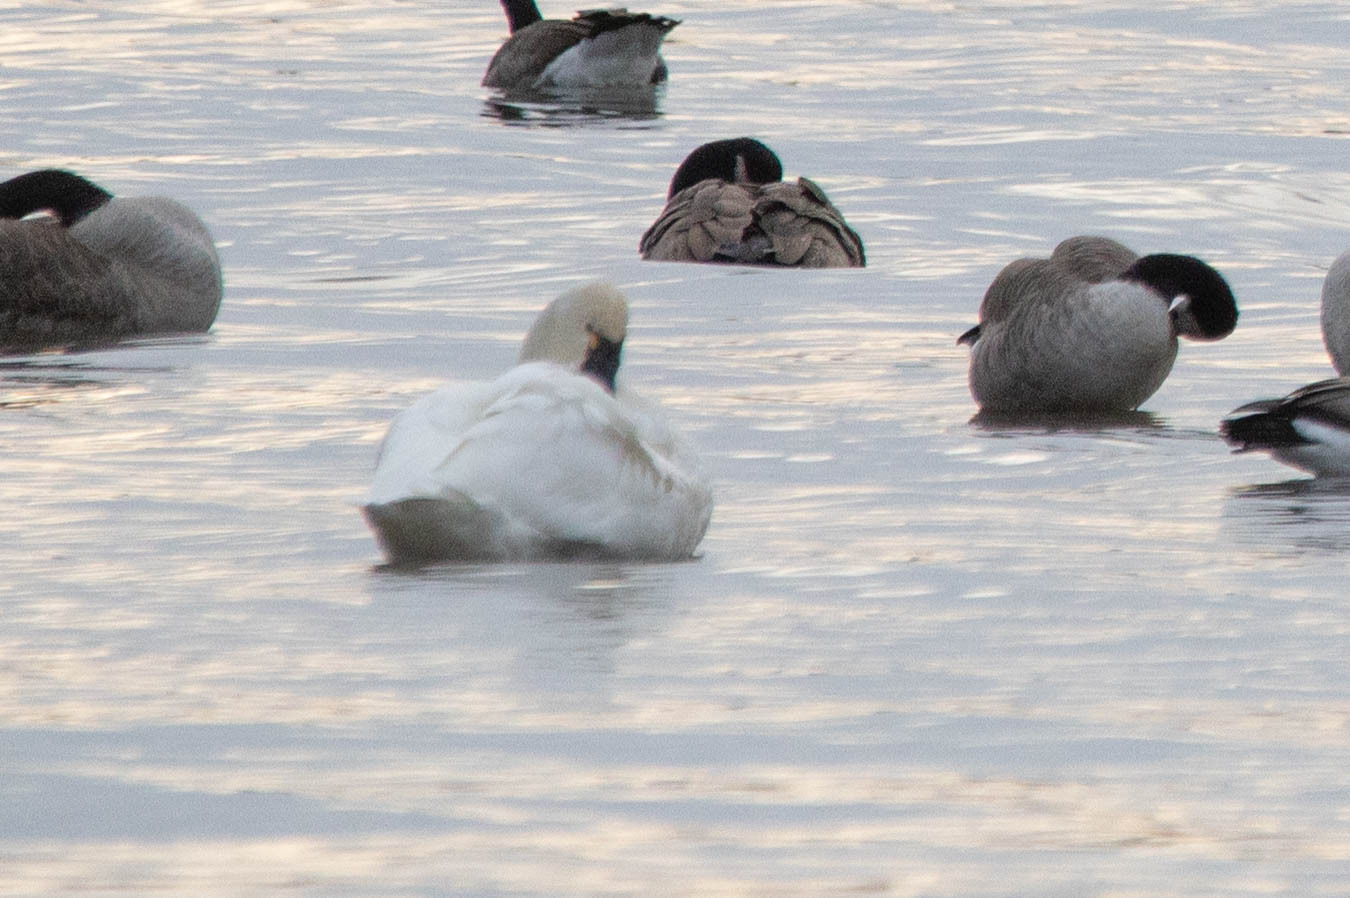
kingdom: Animalia
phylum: Chordata
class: Aves
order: Anseriformes
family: Anatidae
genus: Cygnus
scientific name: Cygnus columbianus
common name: Tundra swan
